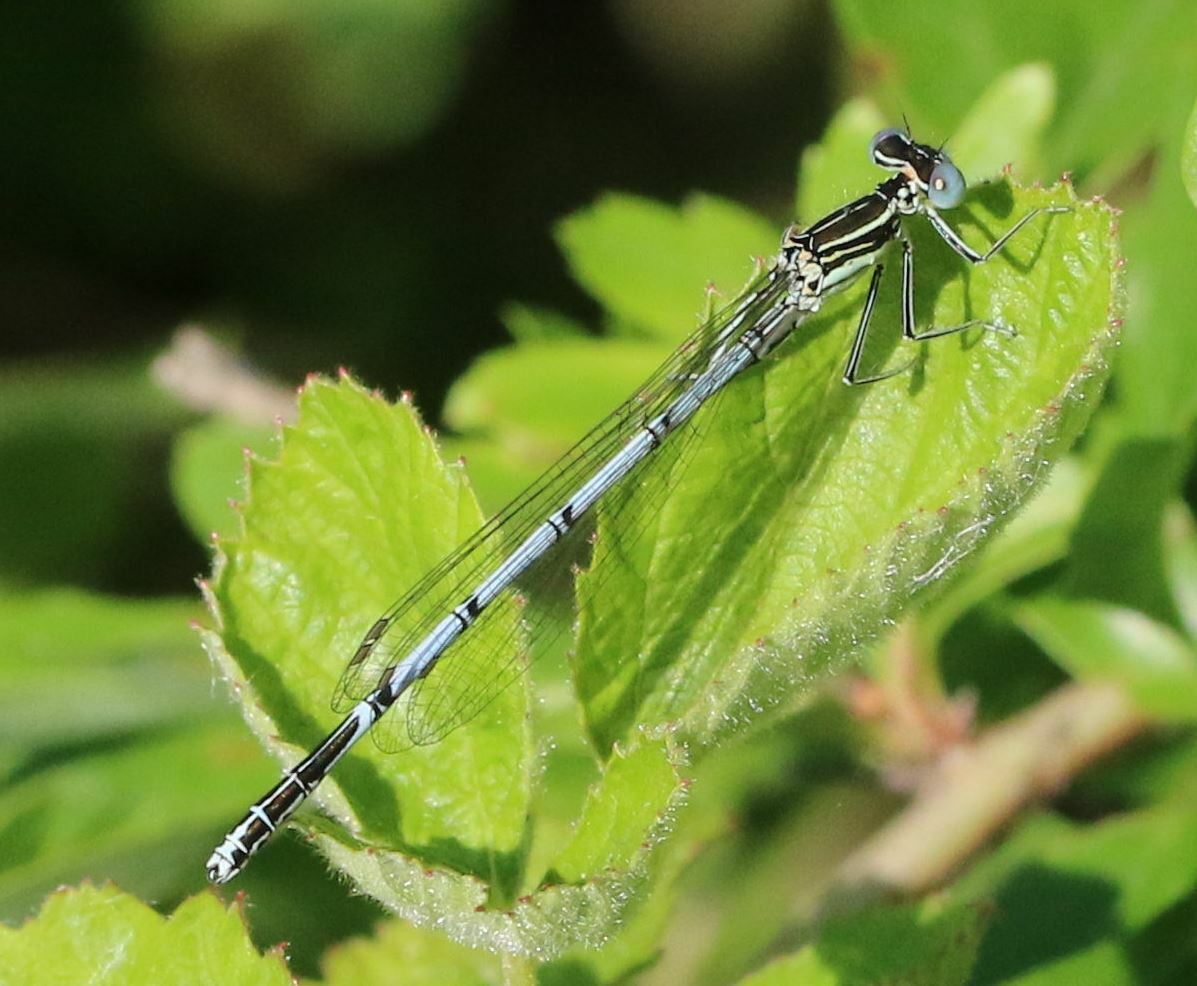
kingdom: Animalia
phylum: Arthropoda
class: Insecta
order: Odonata
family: Platycnemididae
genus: Platycnemis
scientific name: Platycnemis pennipes
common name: White-legged damselfly
